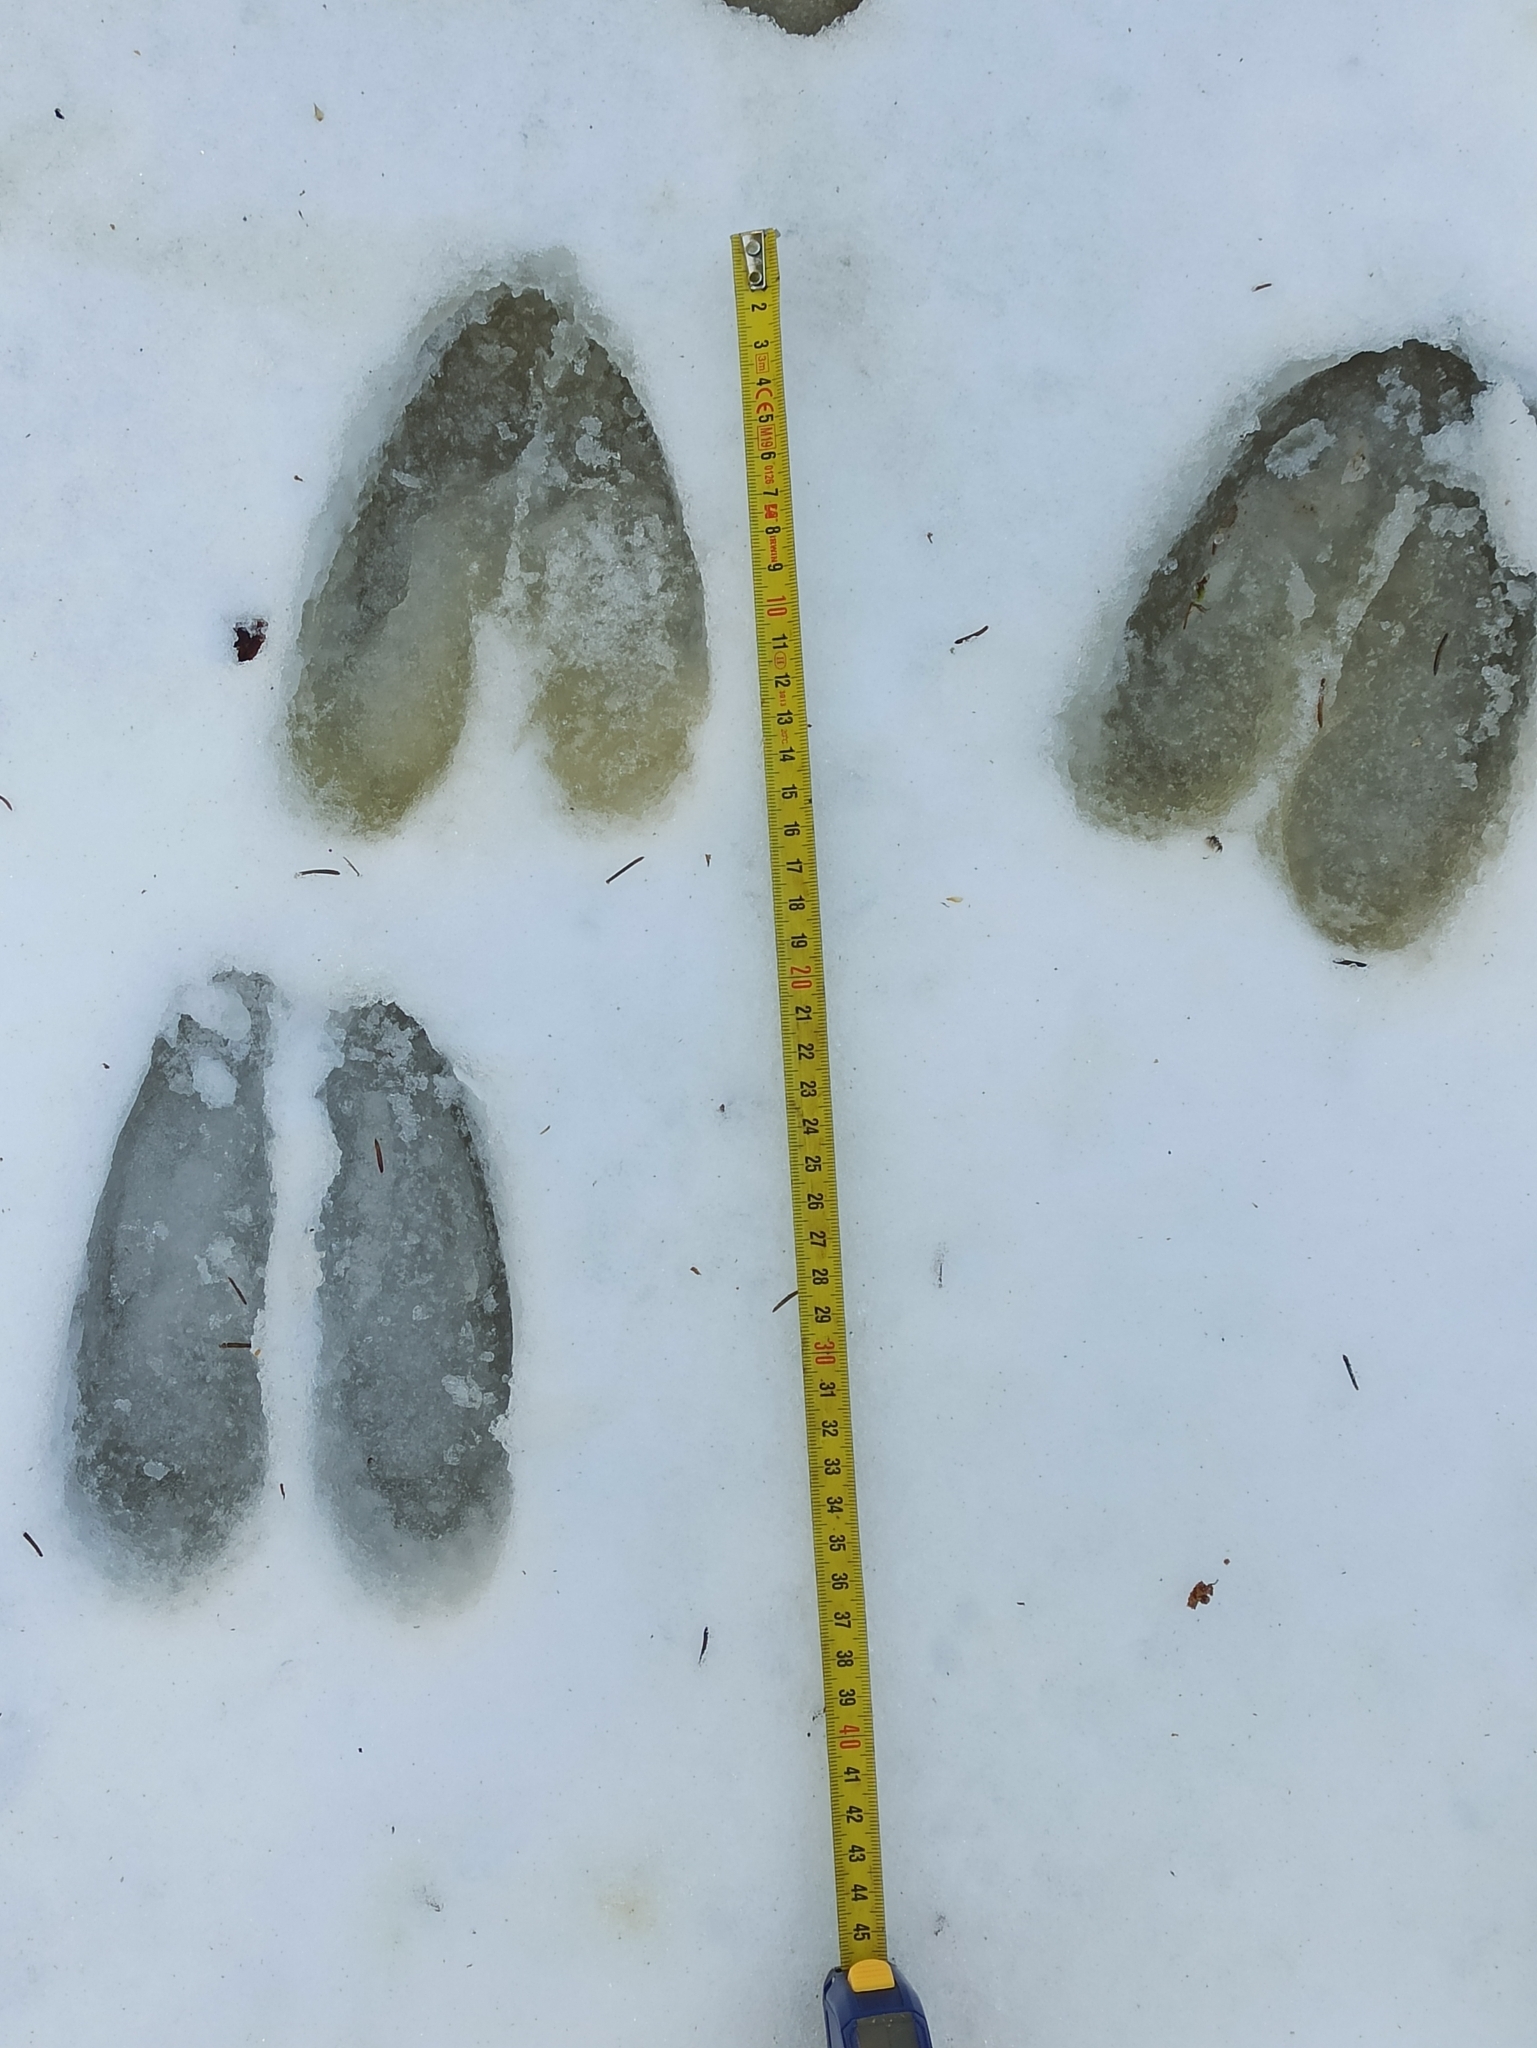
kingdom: Animalia
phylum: Chordata
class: Mammalia
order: Artiodactyla
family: Cervidae
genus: Alces
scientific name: Alces alces
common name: Moose
